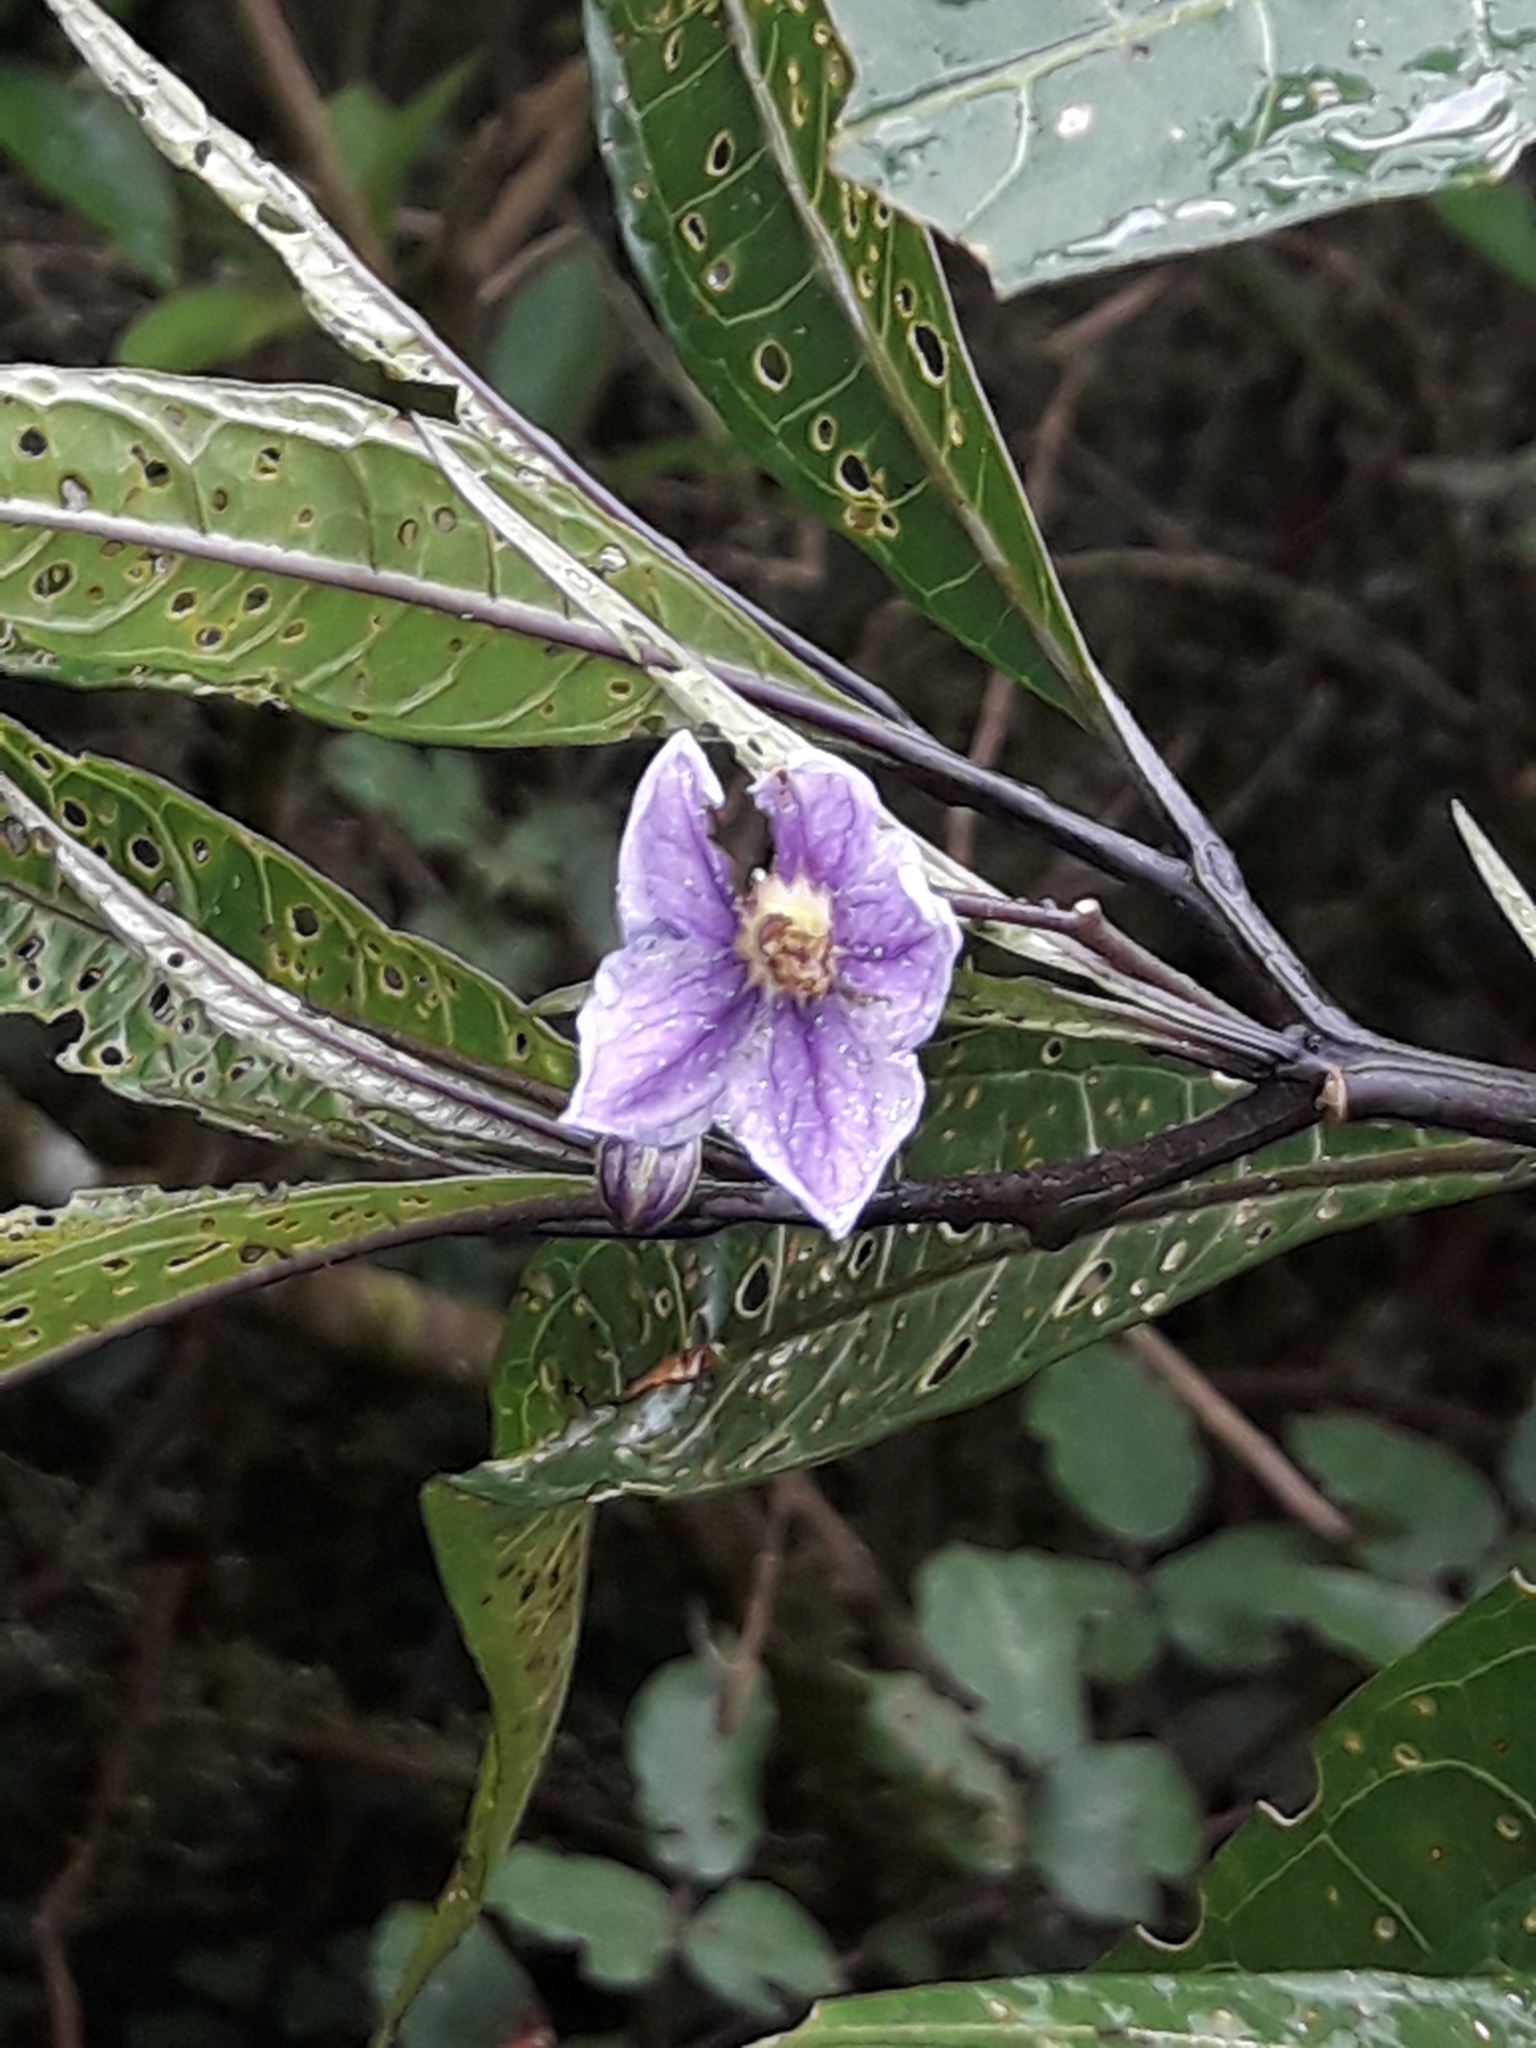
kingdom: Plantae
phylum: Tracheophyta
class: Magnoliopsida
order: Solanales
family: Solanaceae
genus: Solanum
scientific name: Solanum aviculare
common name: New zealand nightshade
